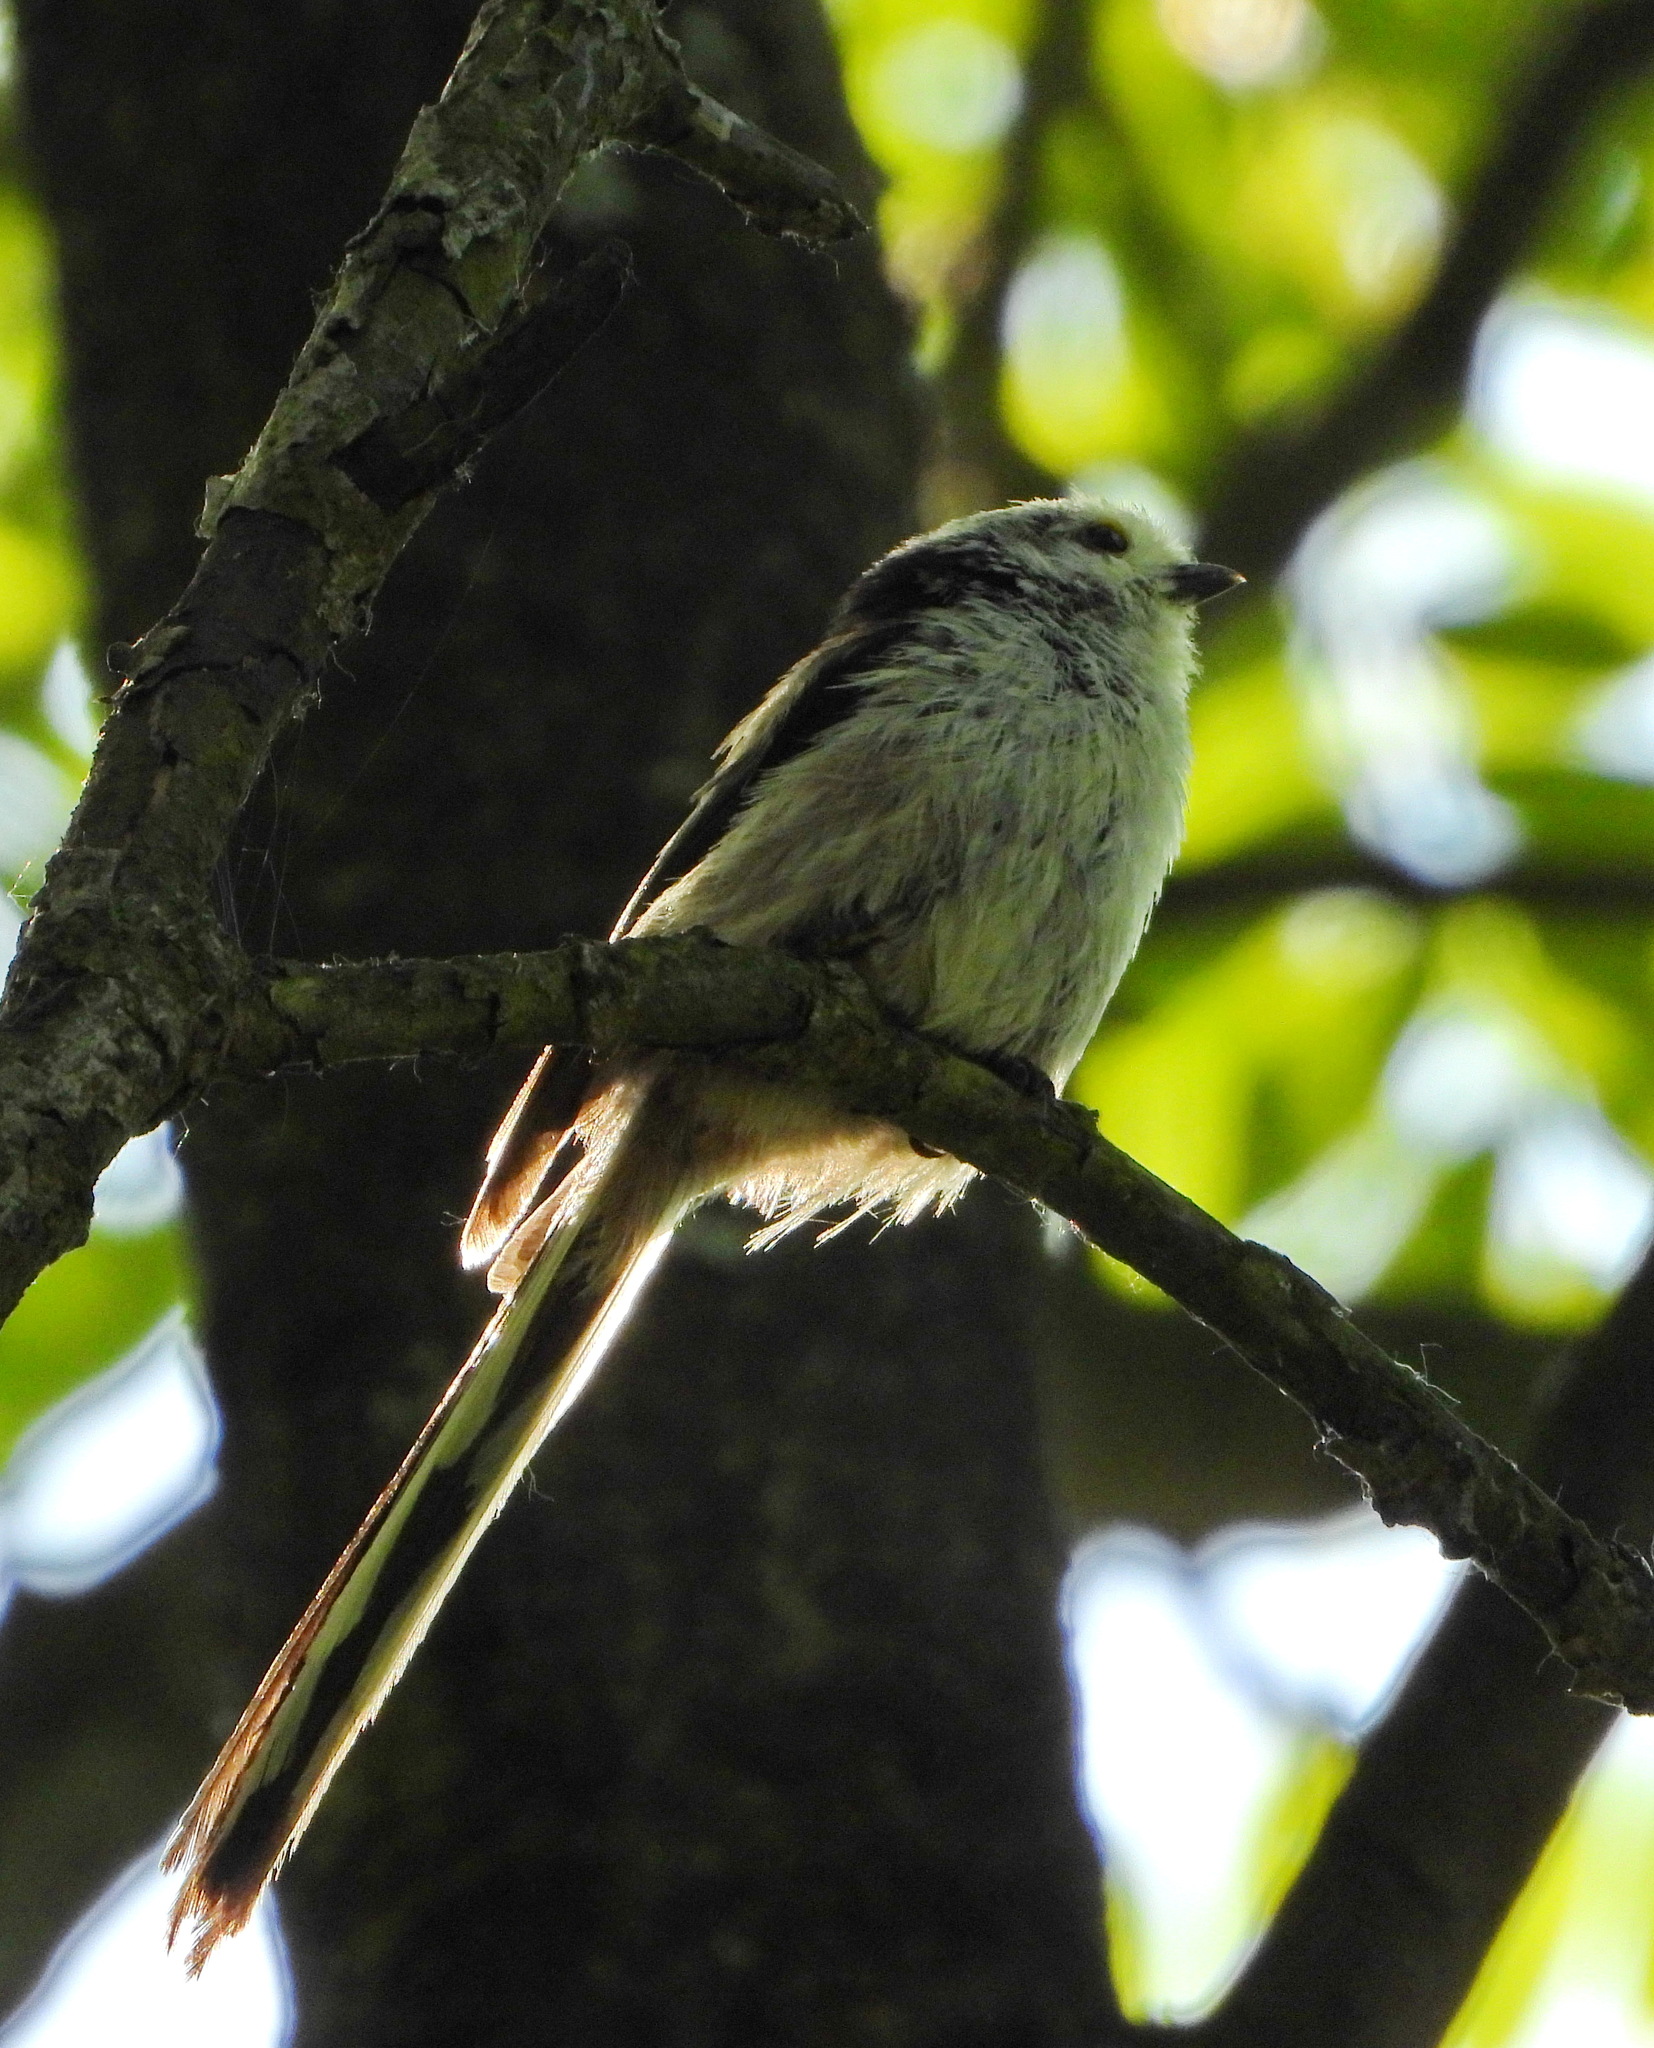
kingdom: Animalia
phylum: Chordata
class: Aves
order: Passeriformes
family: Aegithalidae
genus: Aegithalos
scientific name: Aegithalos caudatus
